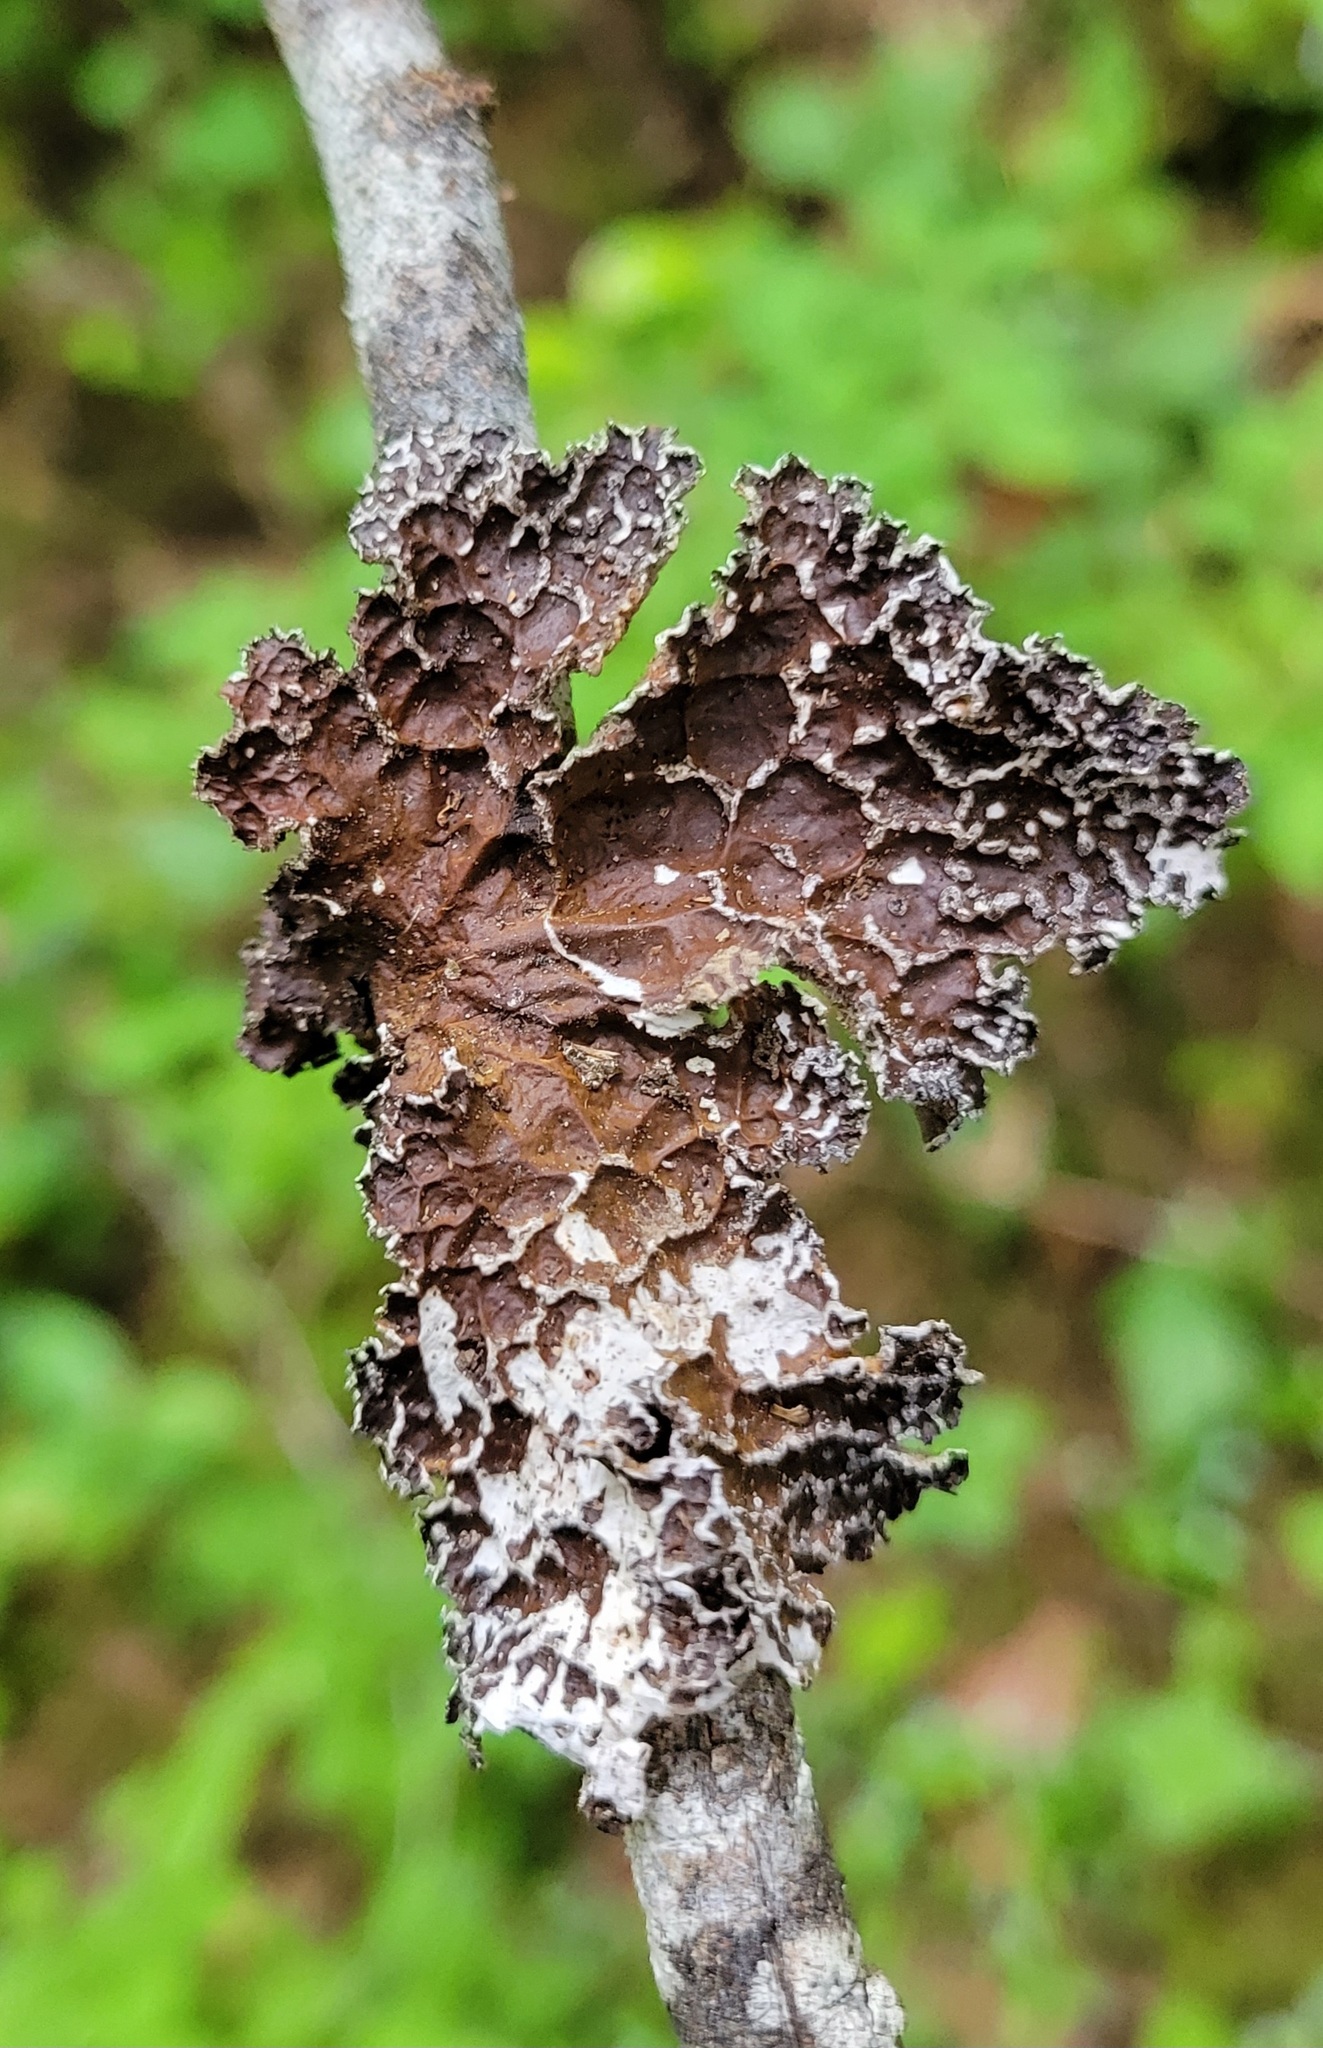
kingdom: Fungi
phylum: Ascomycota
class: Lecanoromycetes
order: Peltigerales
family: Lobariaceae
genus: Lobaria
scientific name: Lobaria anomala
